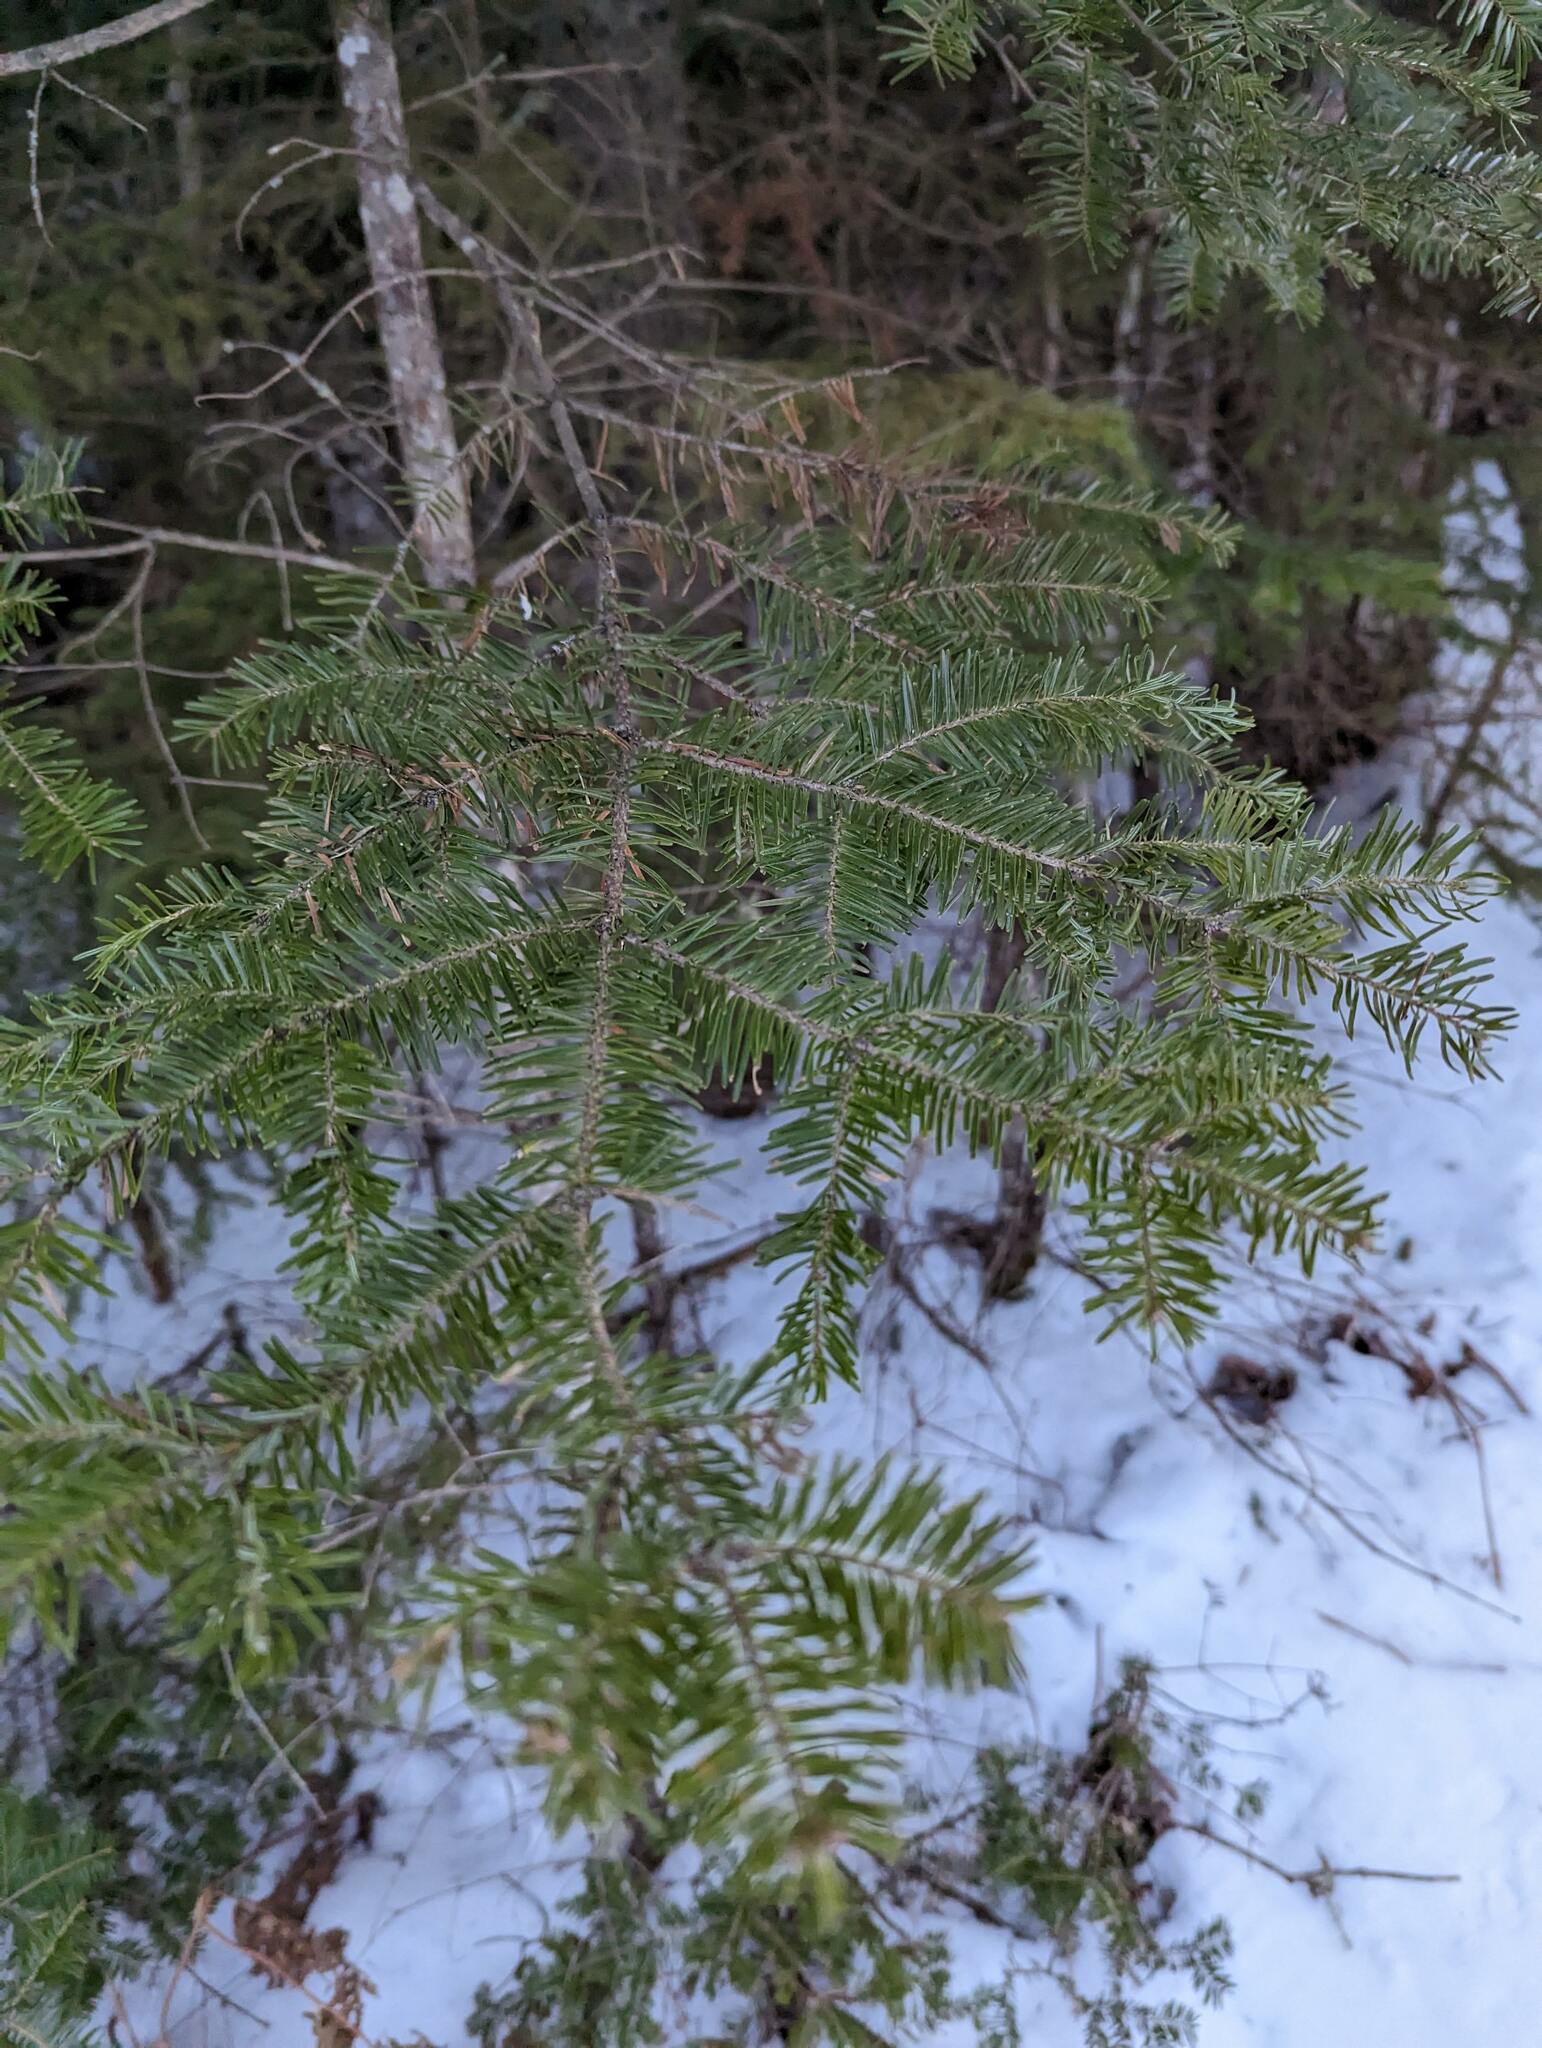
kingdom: Plantae
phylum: Tracheophyta
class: Pinopsida
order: Pinales
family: Pinaceae
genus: Abies
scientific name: Abies balsamea
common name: Balsam fir
